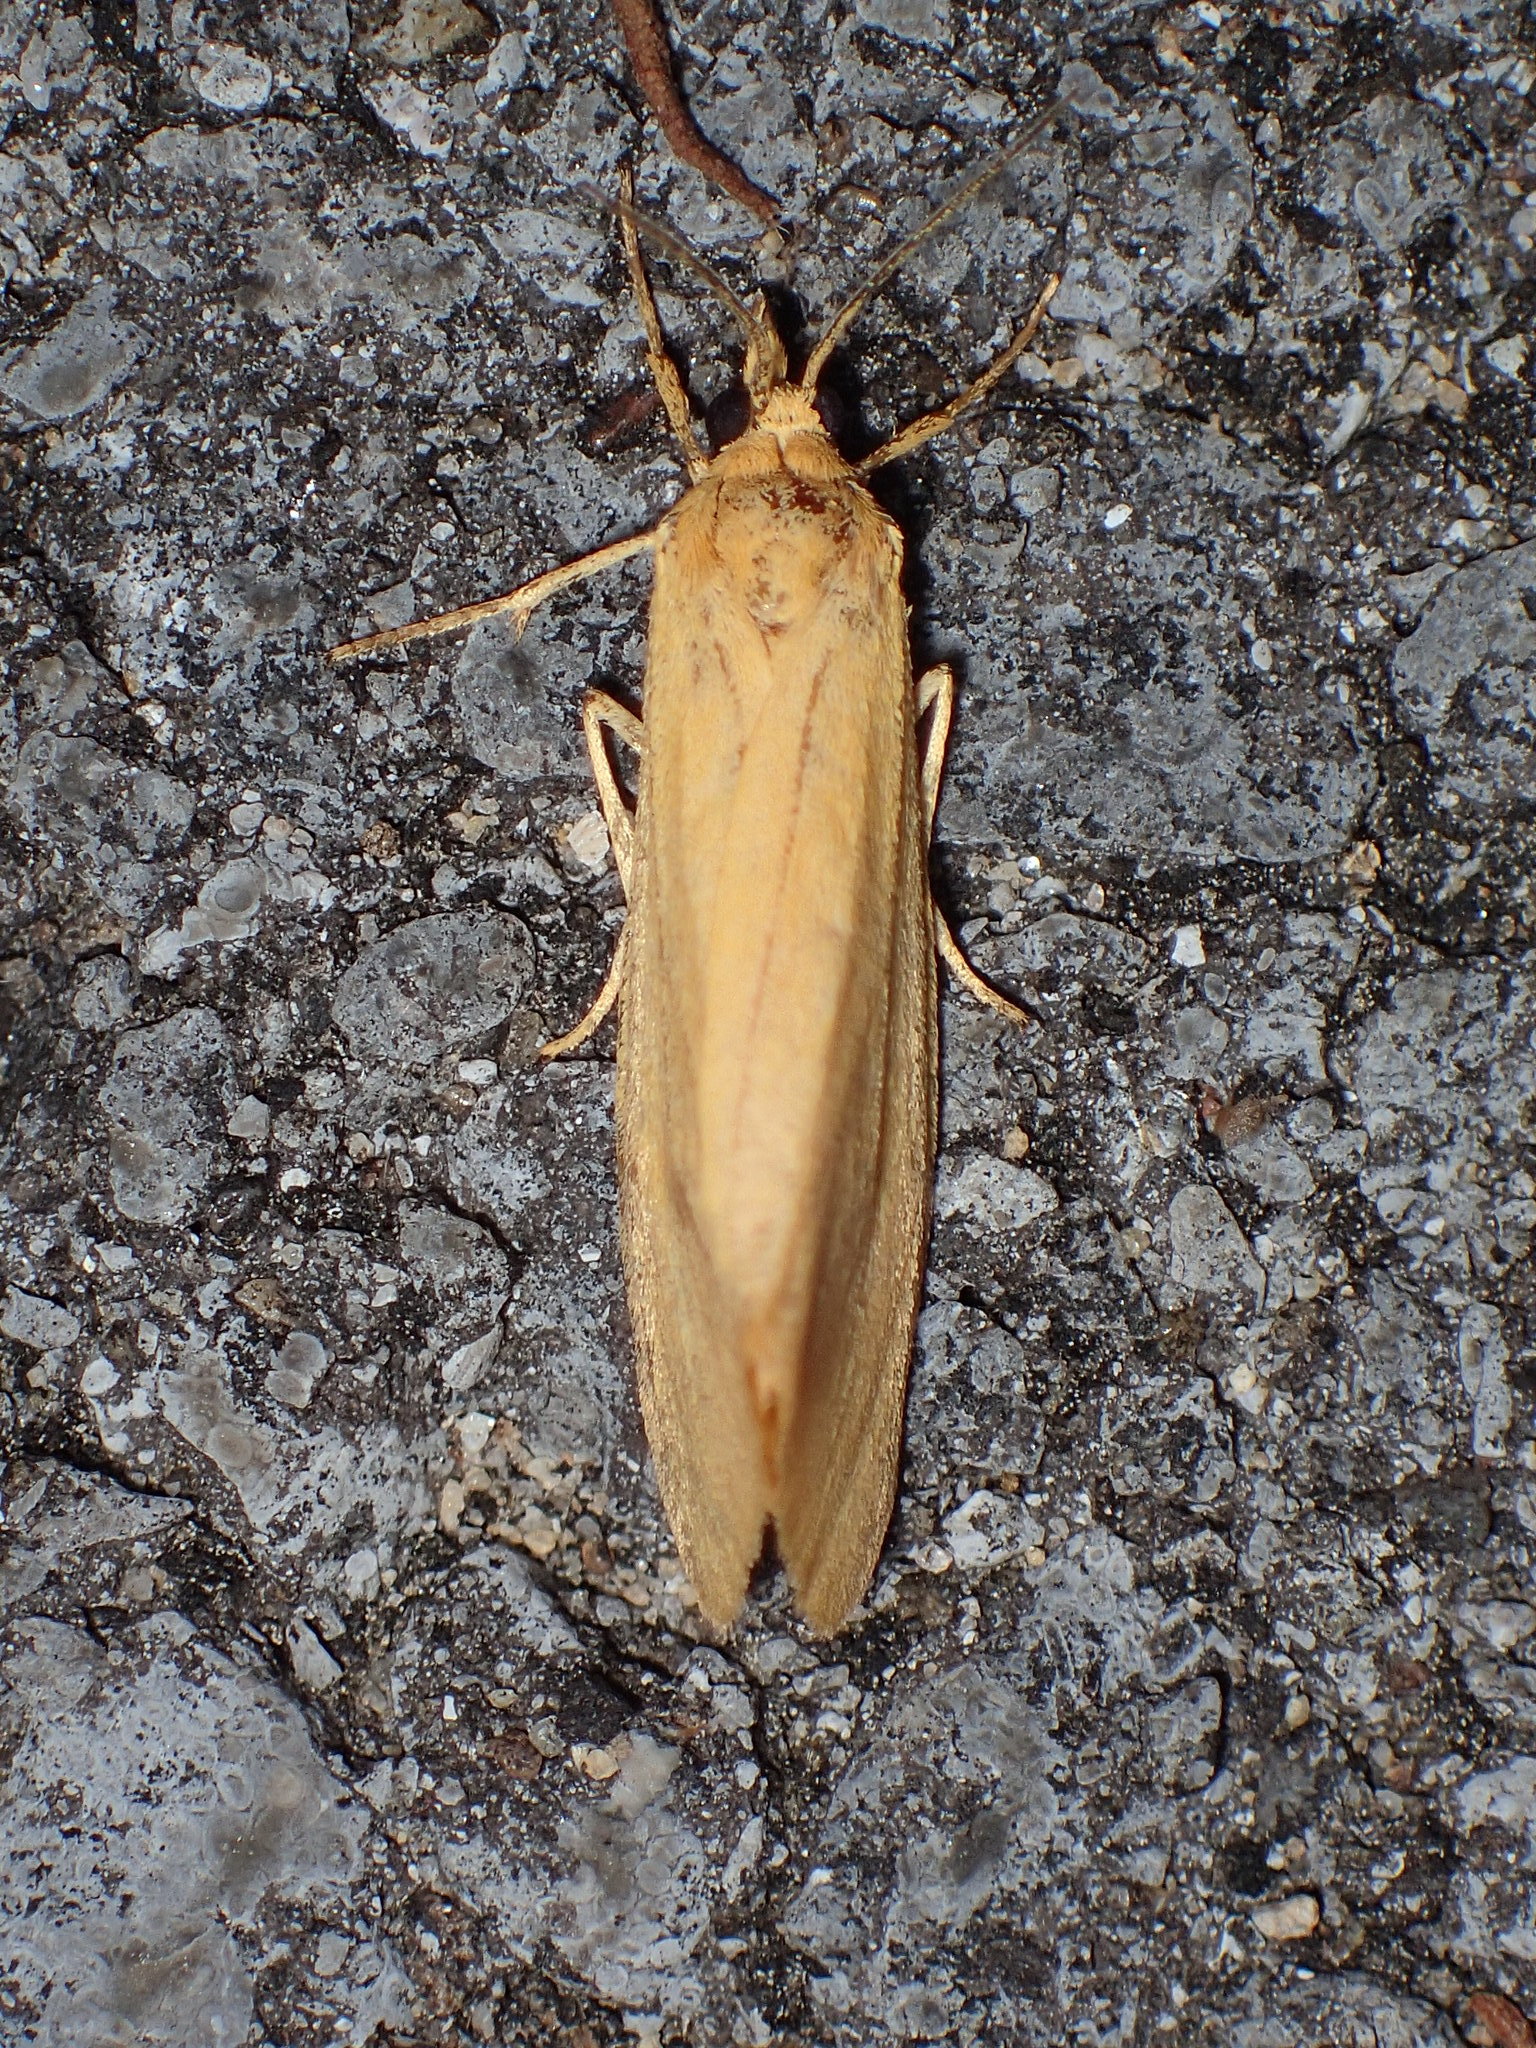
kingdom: Animalia
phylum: Arthropoda
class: Insecta
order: Lepidoptera
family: Erebidae
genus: Virbia
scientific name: Virbia aurantiaca
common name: Orange virbia moth
